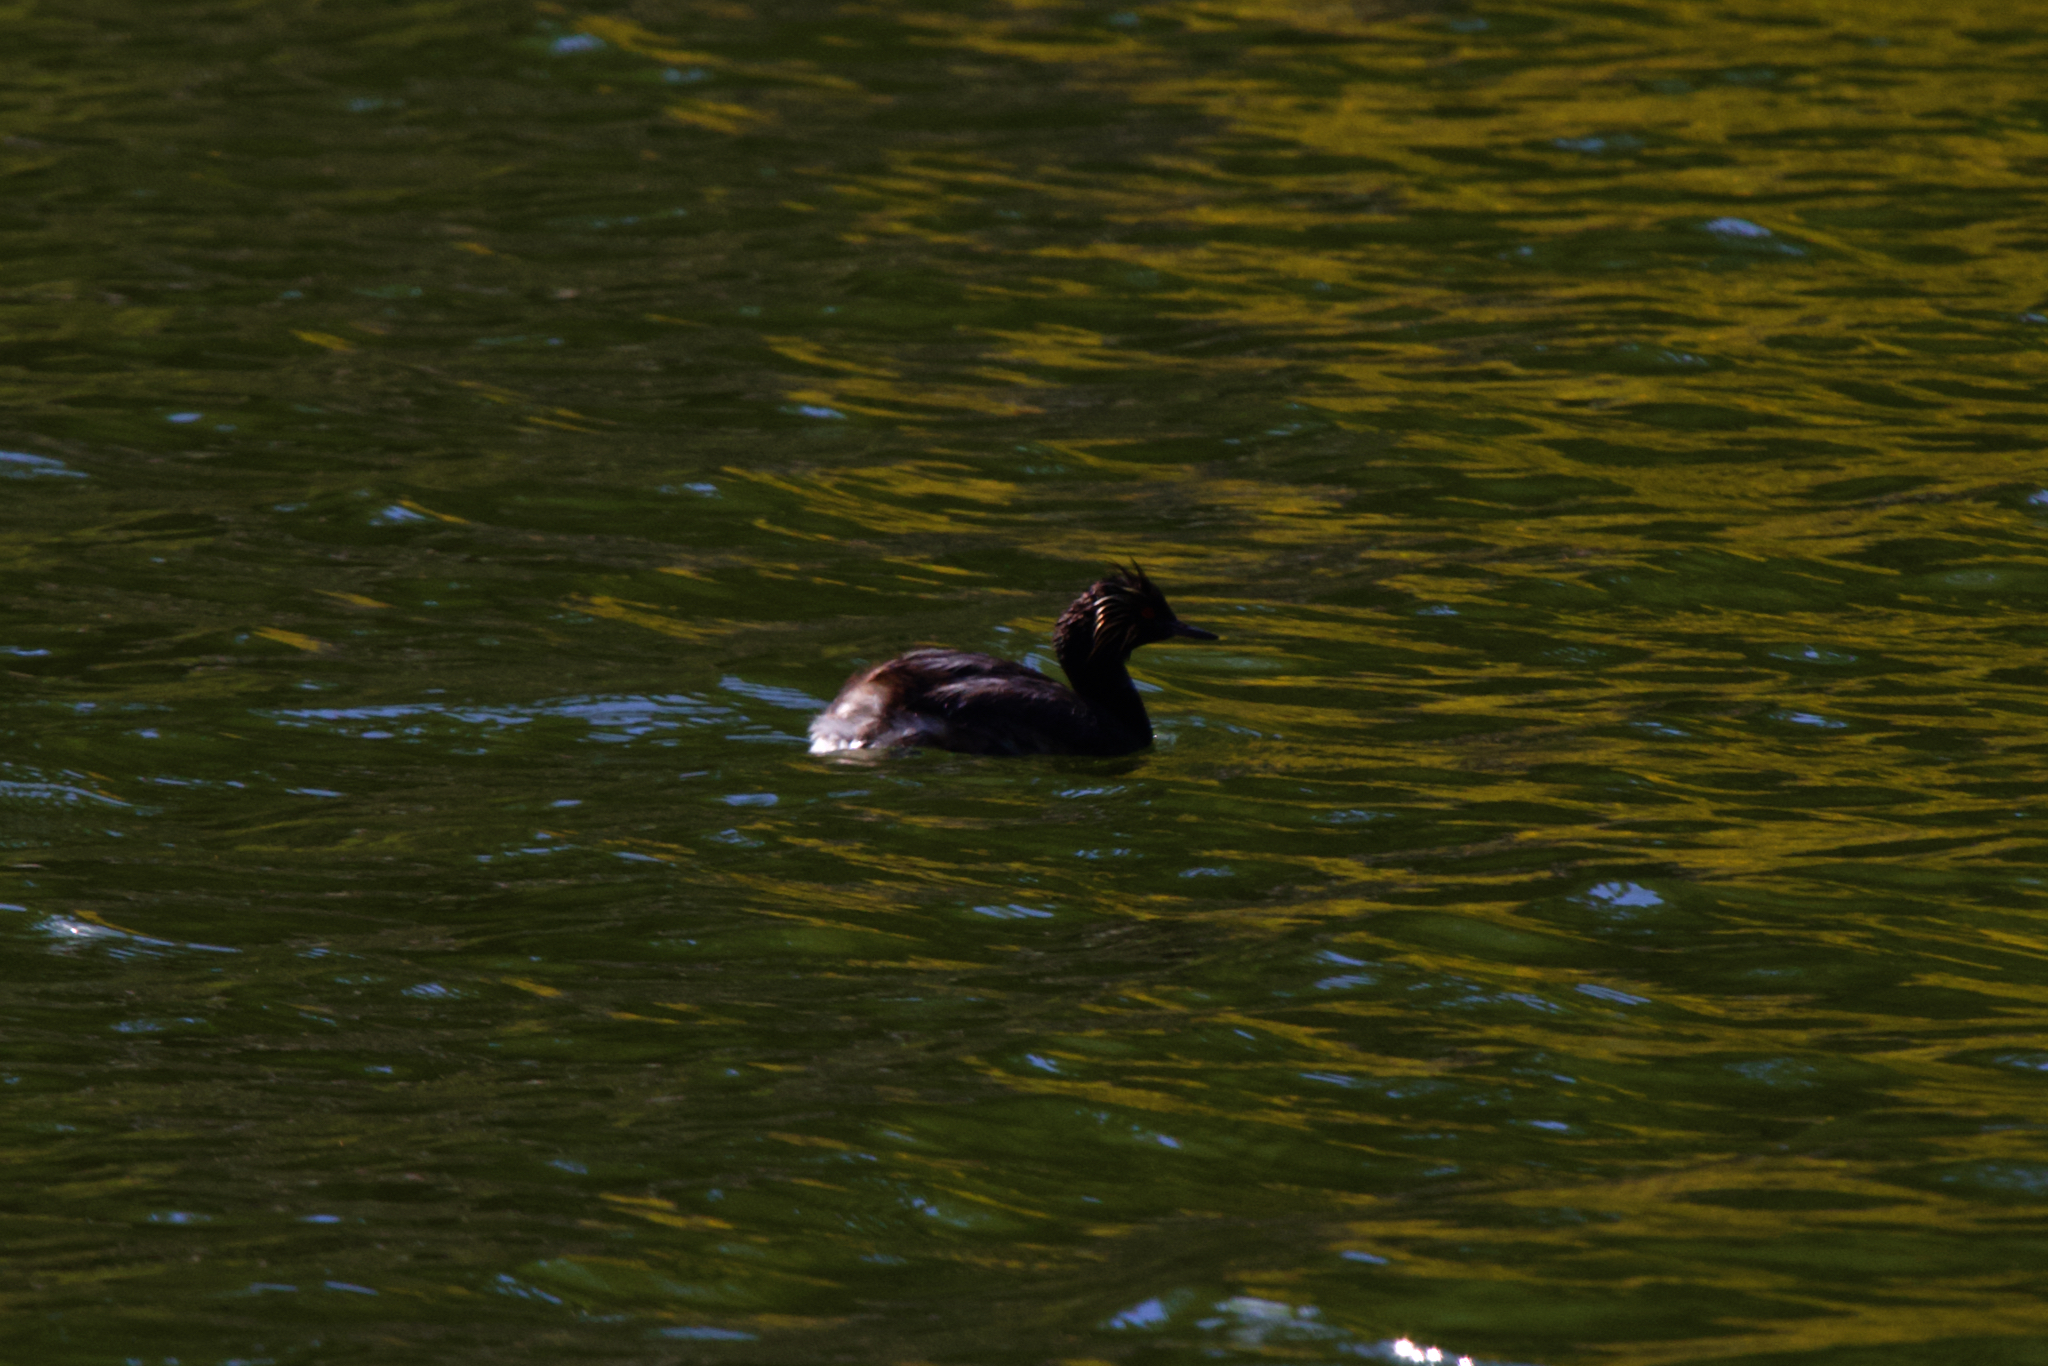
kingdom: Animalia
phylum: Chordata
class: Aves
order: Podicipediformes
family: Podicipedidae
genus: Podiceps
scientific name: Podiceps nigricollis
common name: Black-necked grebe
